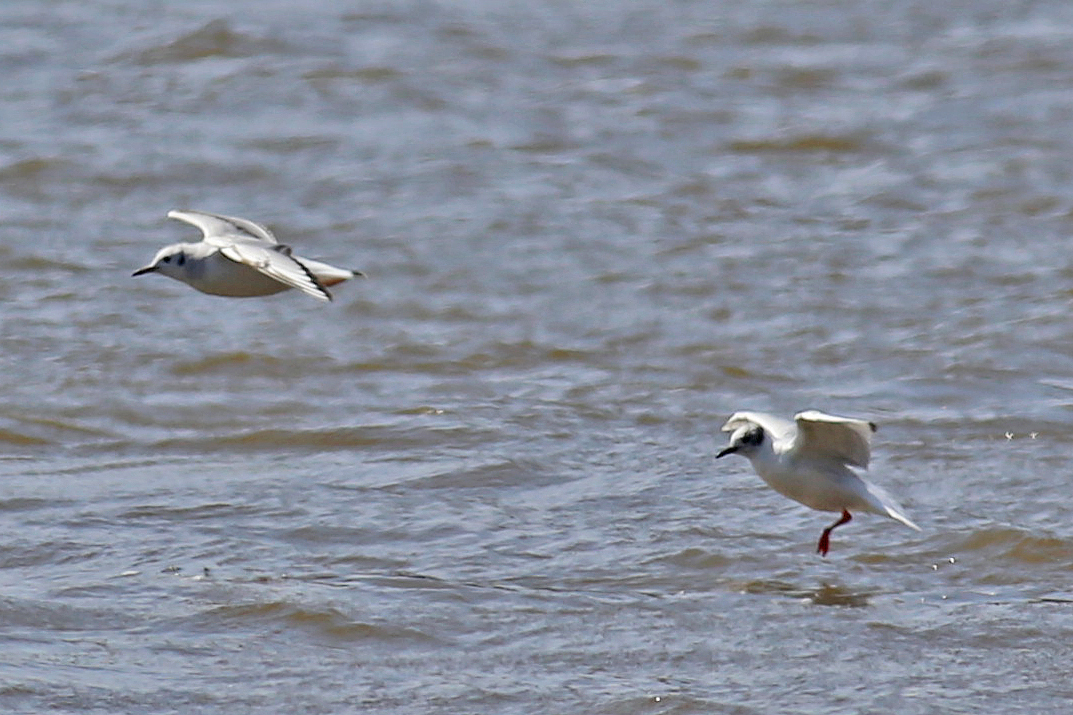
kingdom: Animalia
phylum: Chordata
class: Aves
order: Charadriiformes
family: Laridae
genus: Chroicocephalus
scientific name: Chroicocephalus philadelphia
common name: Bonaparte's gull
